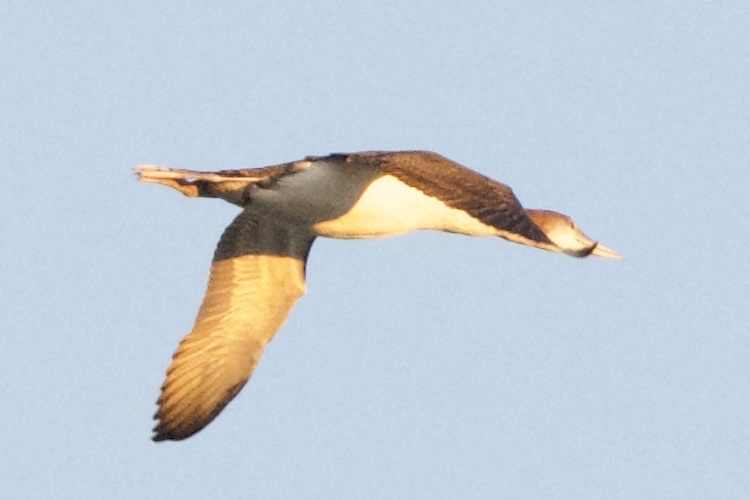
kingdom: Animalia
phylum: Chordata
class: Aves
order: Gaviiformes
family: Gaviidae
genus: Gavia
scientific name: Gavia immer
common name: Common loon
